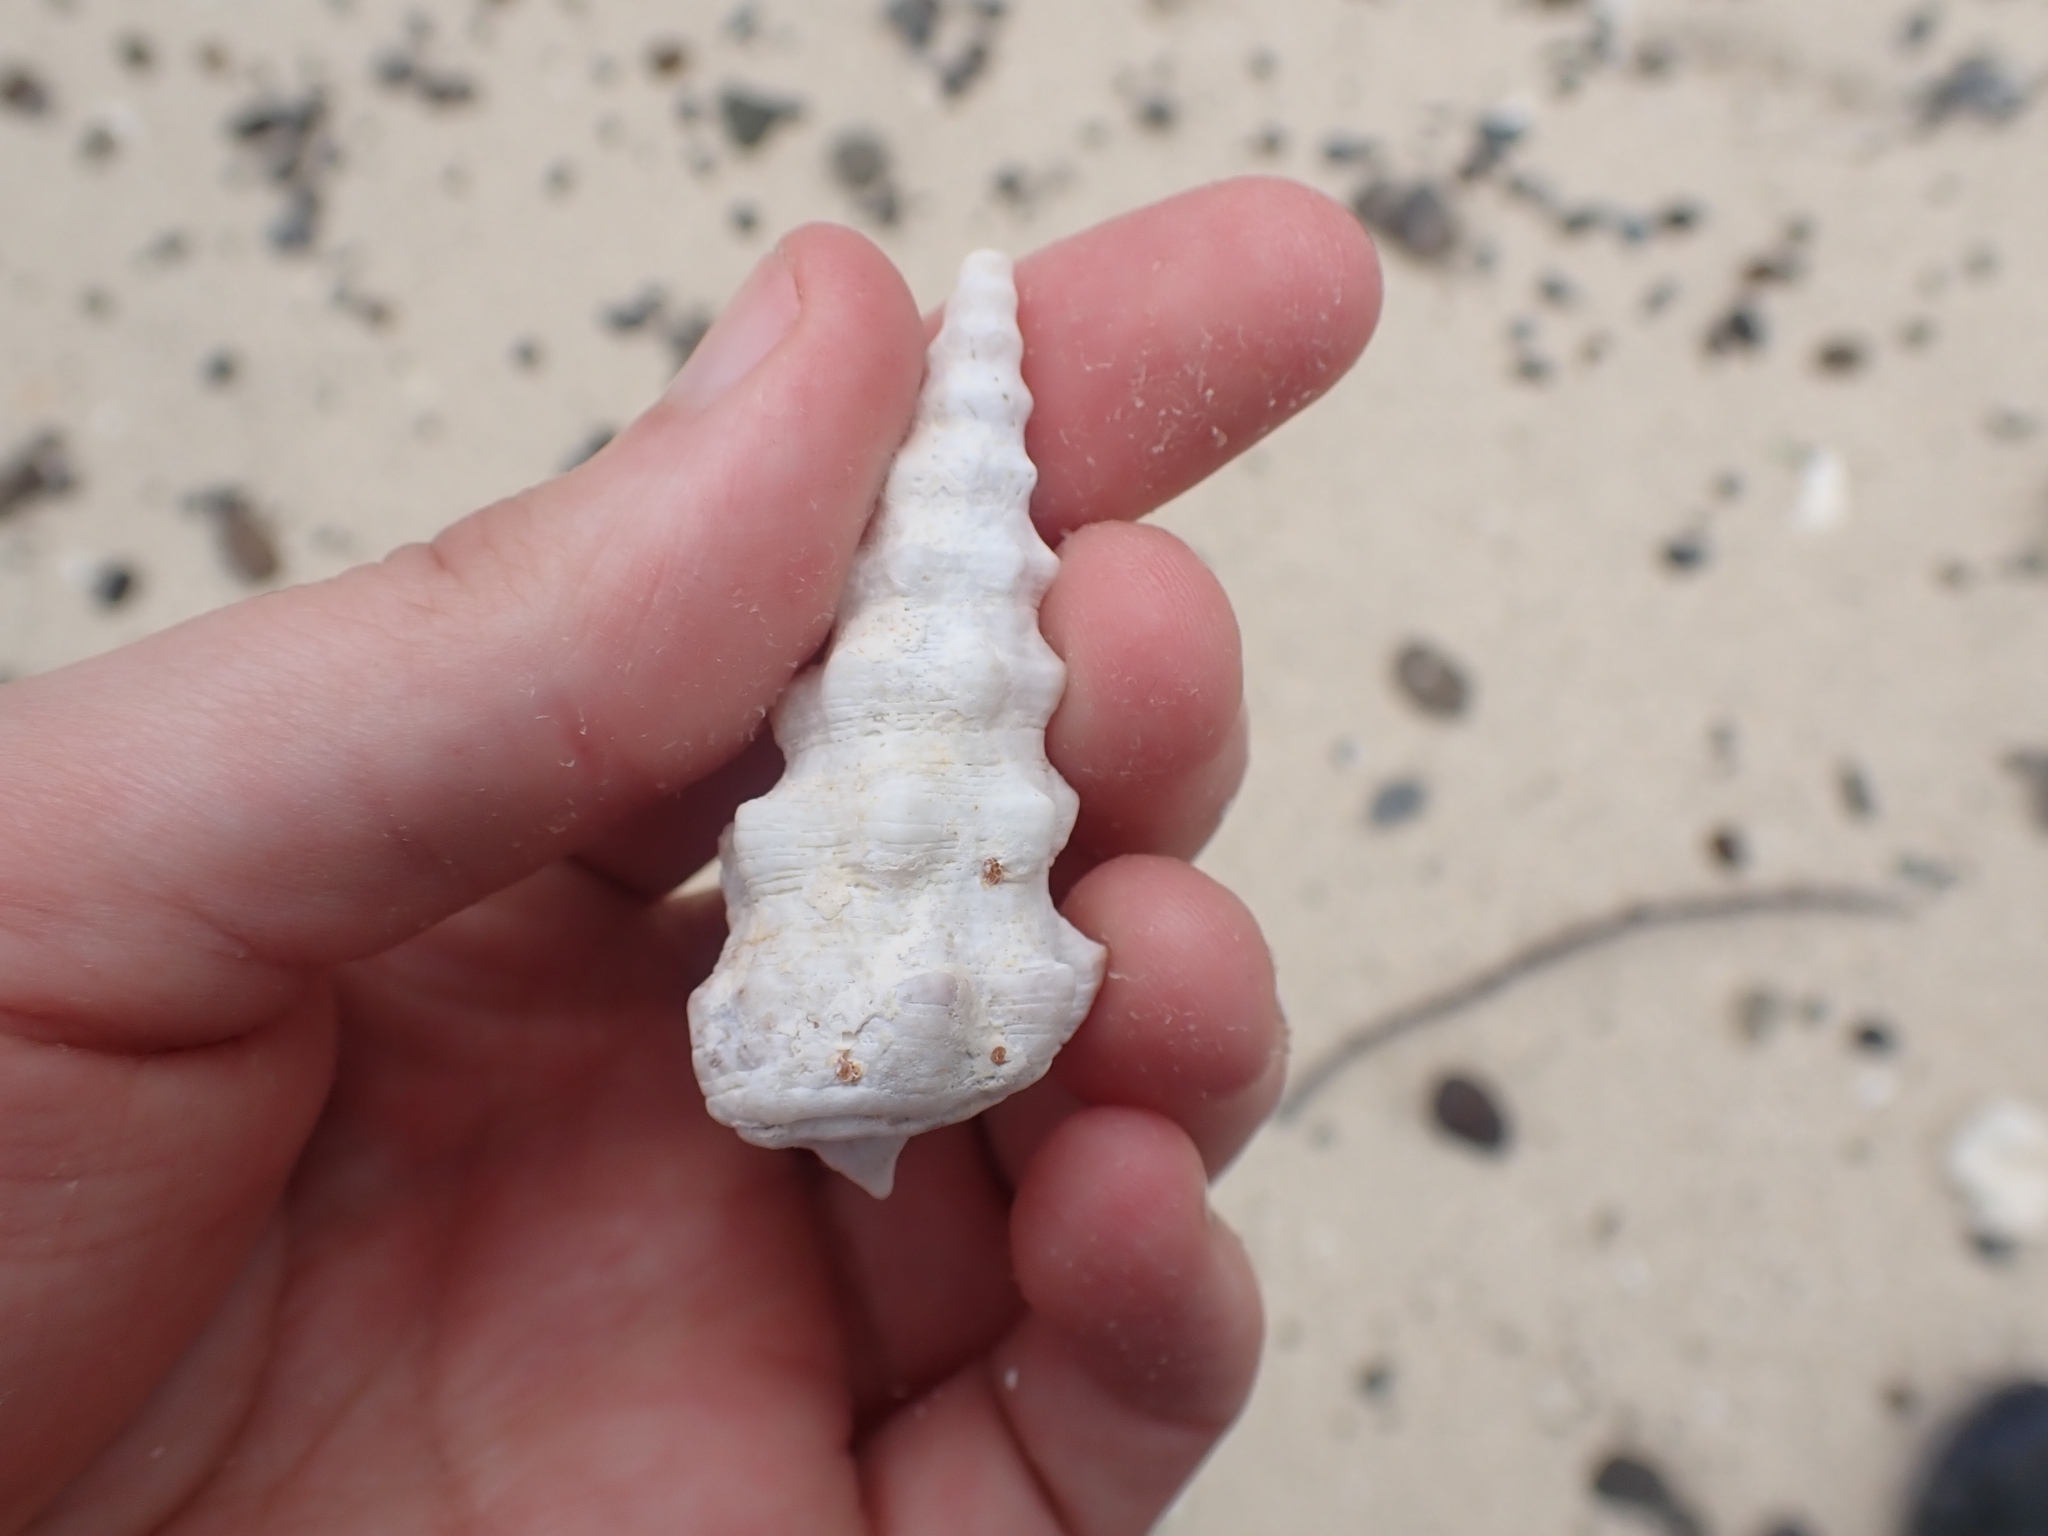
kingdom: Animalia
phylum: Mollusca
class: Gastropoda
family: Cerithiidae
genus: Cerithium
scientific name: Cerithium nodulosum
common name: Nadelschnecke giant knobbed cerith
